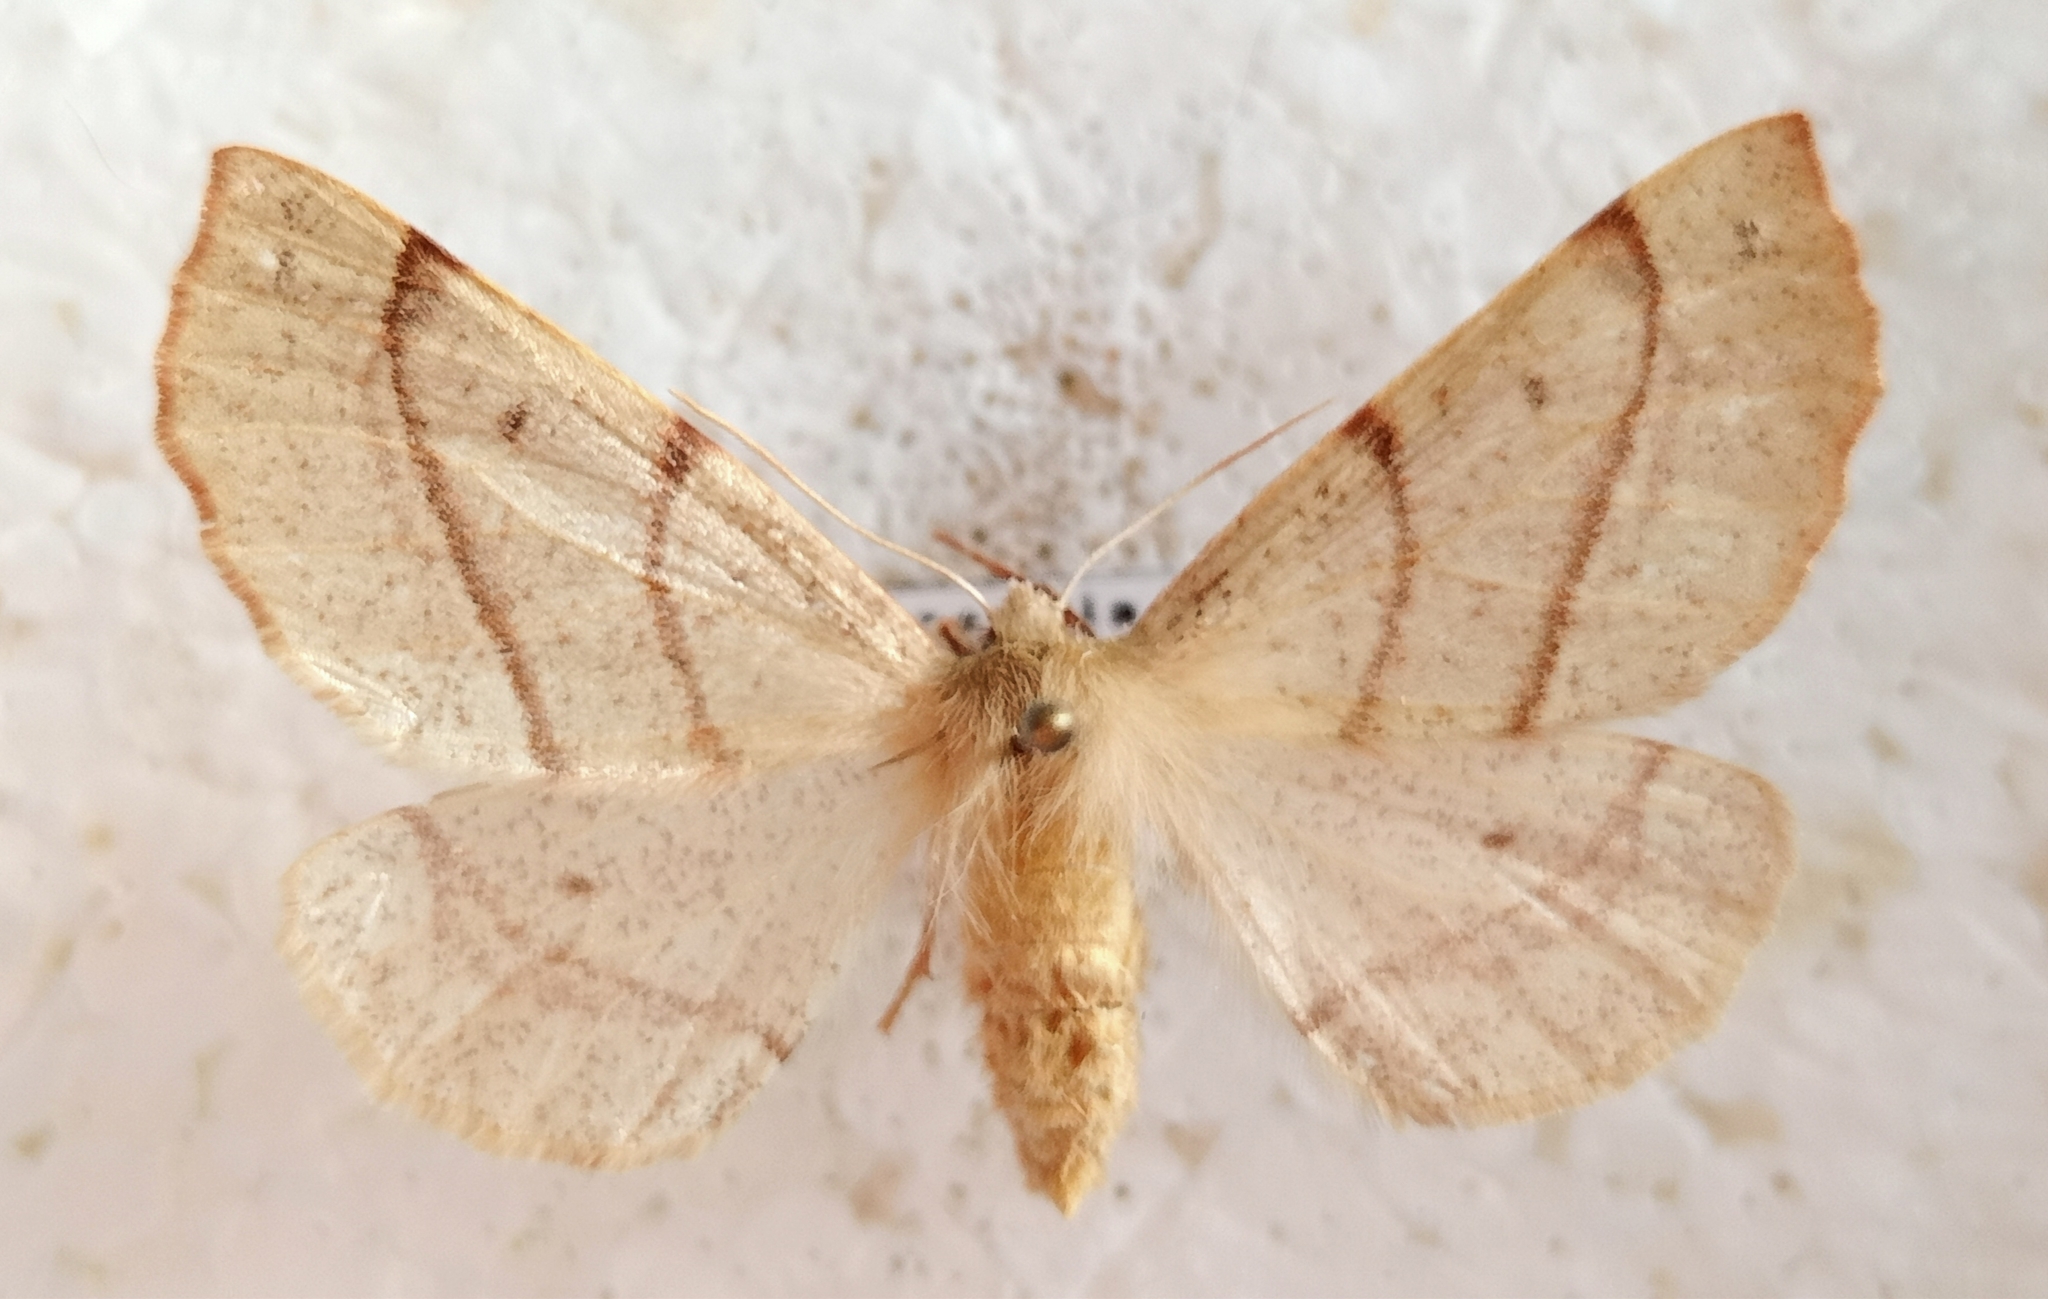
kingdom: Animalia
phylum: Arthropoda
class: Insecta
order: Lepidoptera
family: Geometridae
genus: Colotois
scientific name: Colotois pennaria
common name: Feathered thorn
